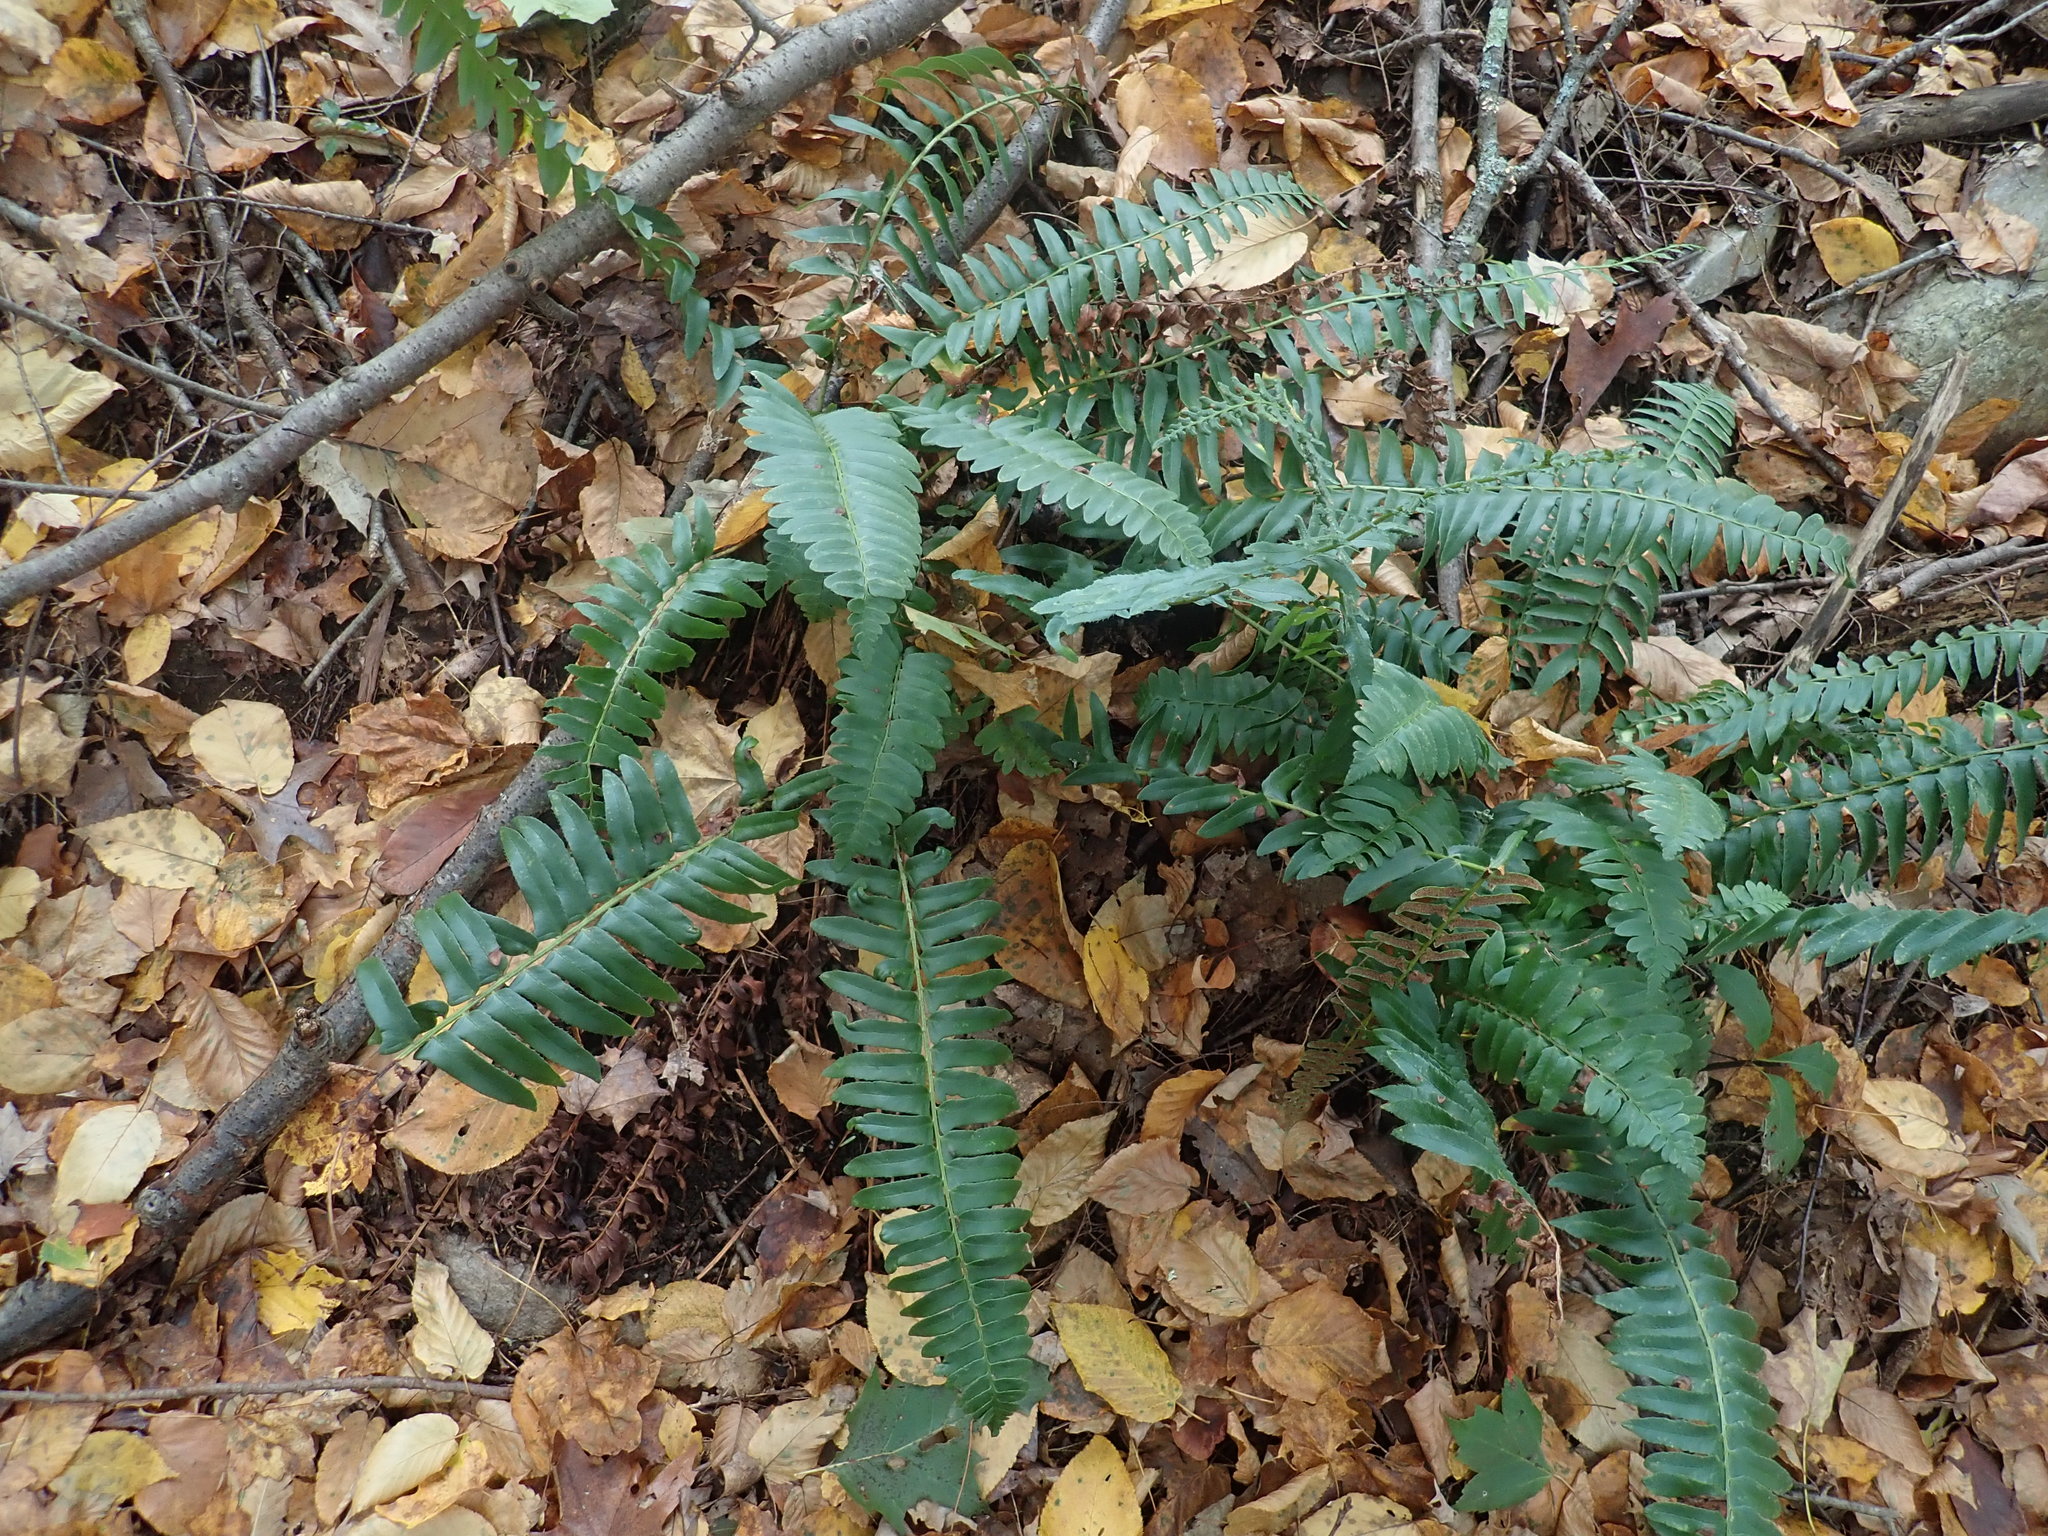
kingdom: Plantae
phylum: Tracheophyta
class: Polypodiopsida
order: Polypodiales
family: Dryopteridaceae
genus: Polystichum
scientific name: Polystichum acrostichoides
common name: Christmas fern
